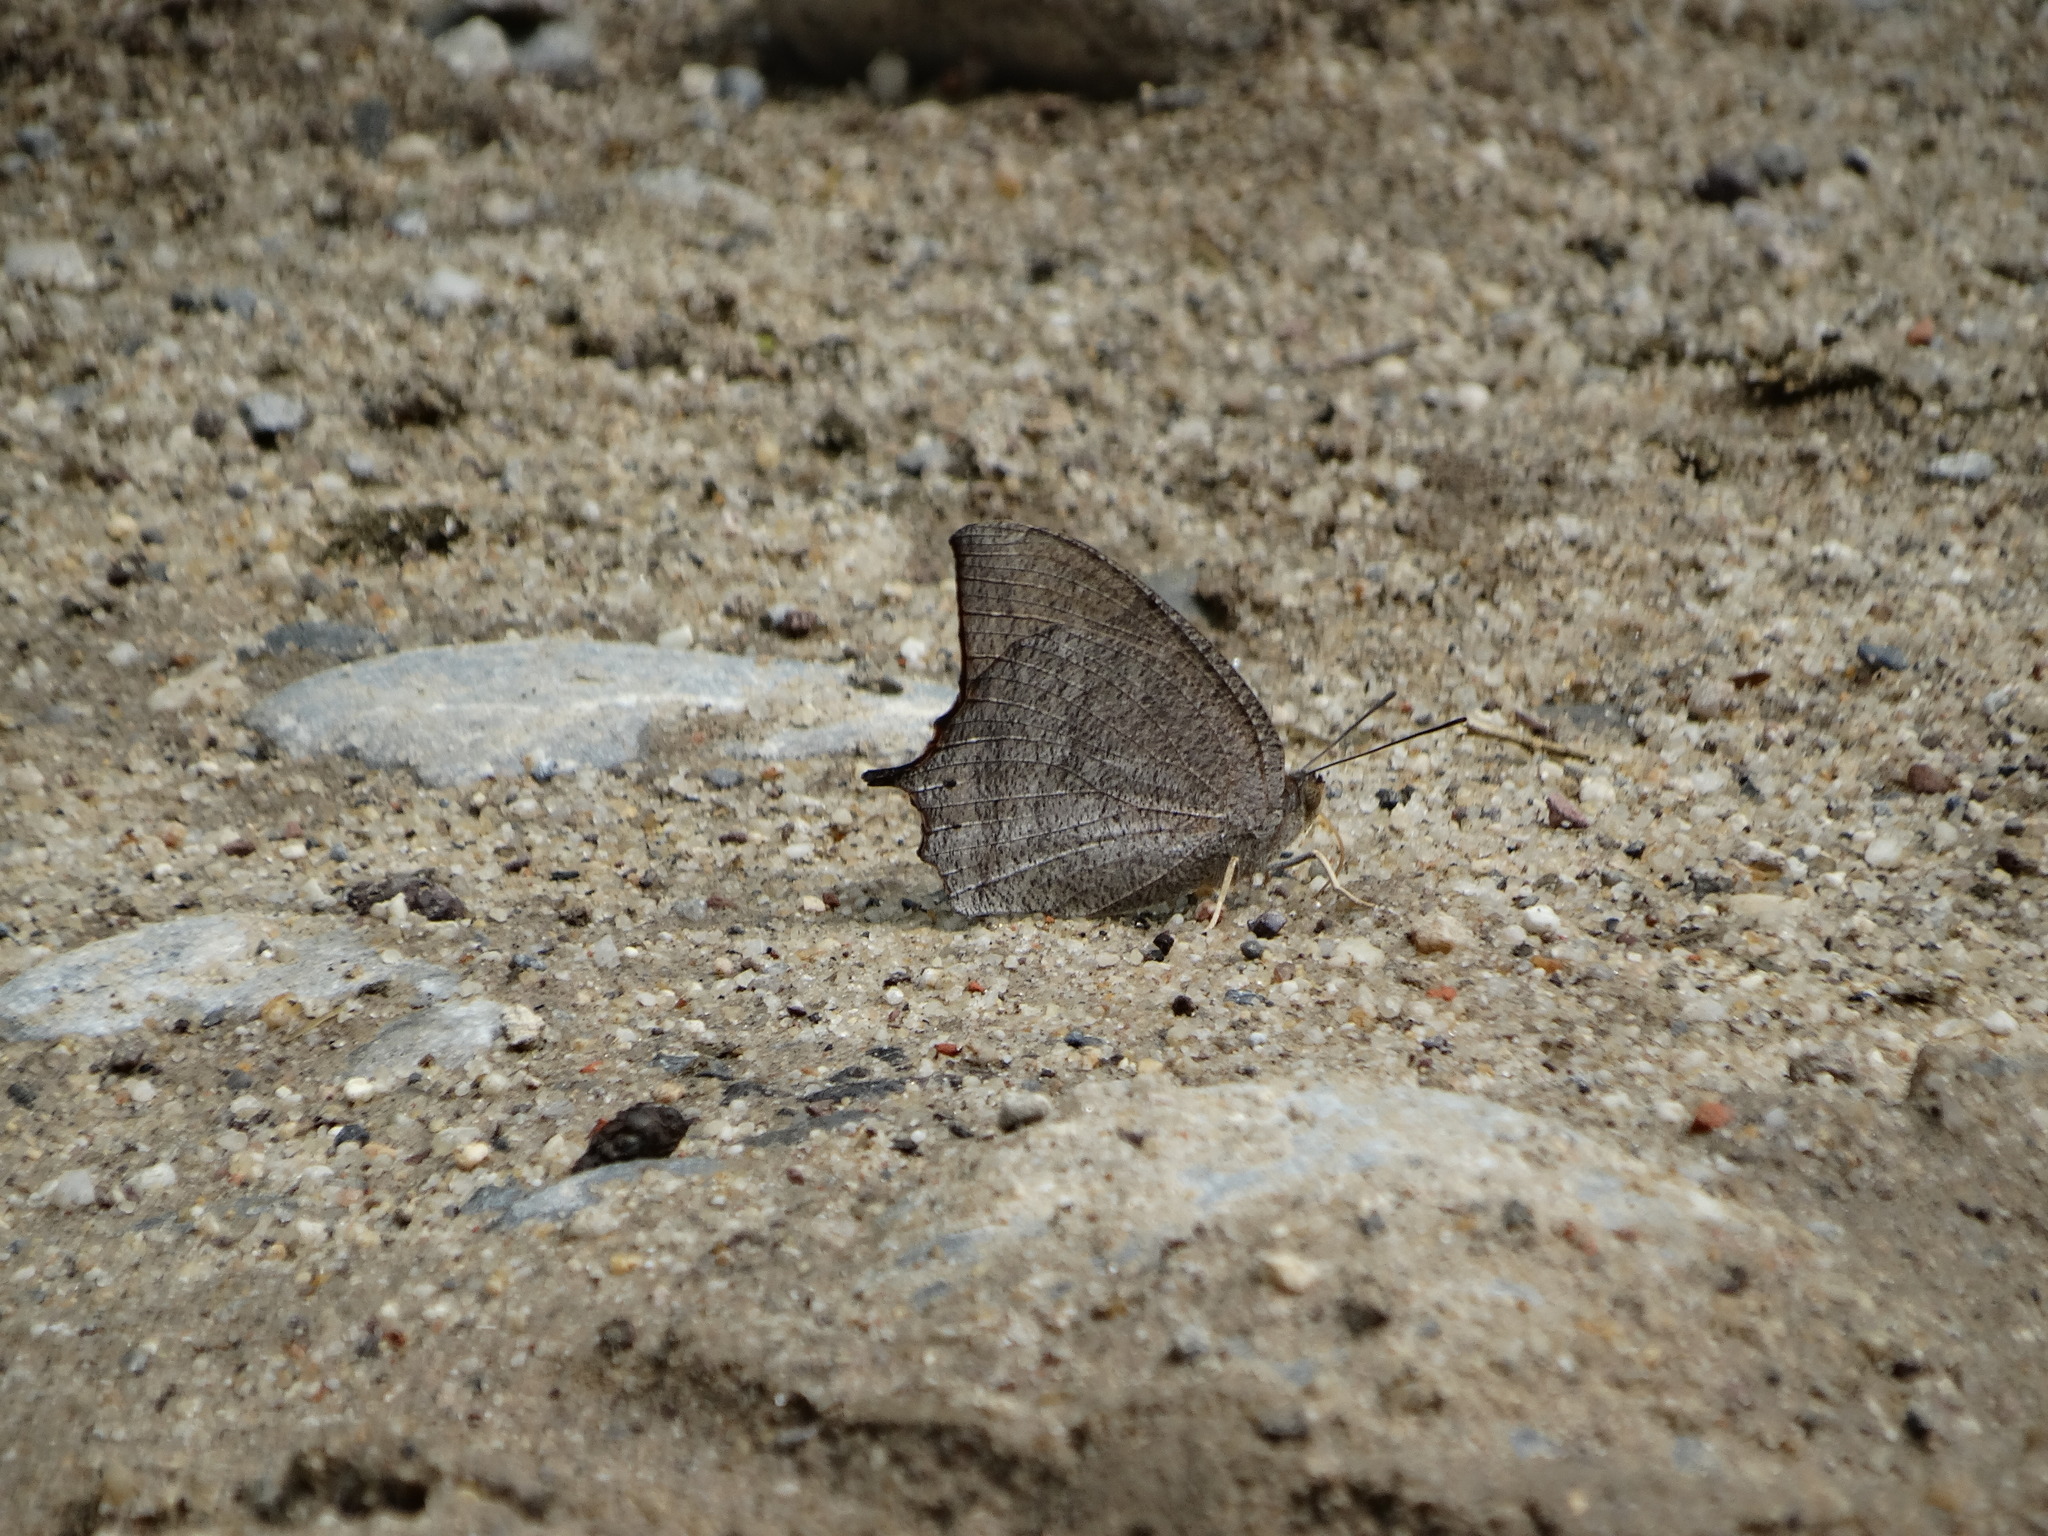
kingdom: Animalia
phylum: Arthropoda
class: Insecta
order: Lepidoptera
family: Nymphalidae
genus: Anaea
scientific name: Anaea aidea
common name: Tropical leafwing
